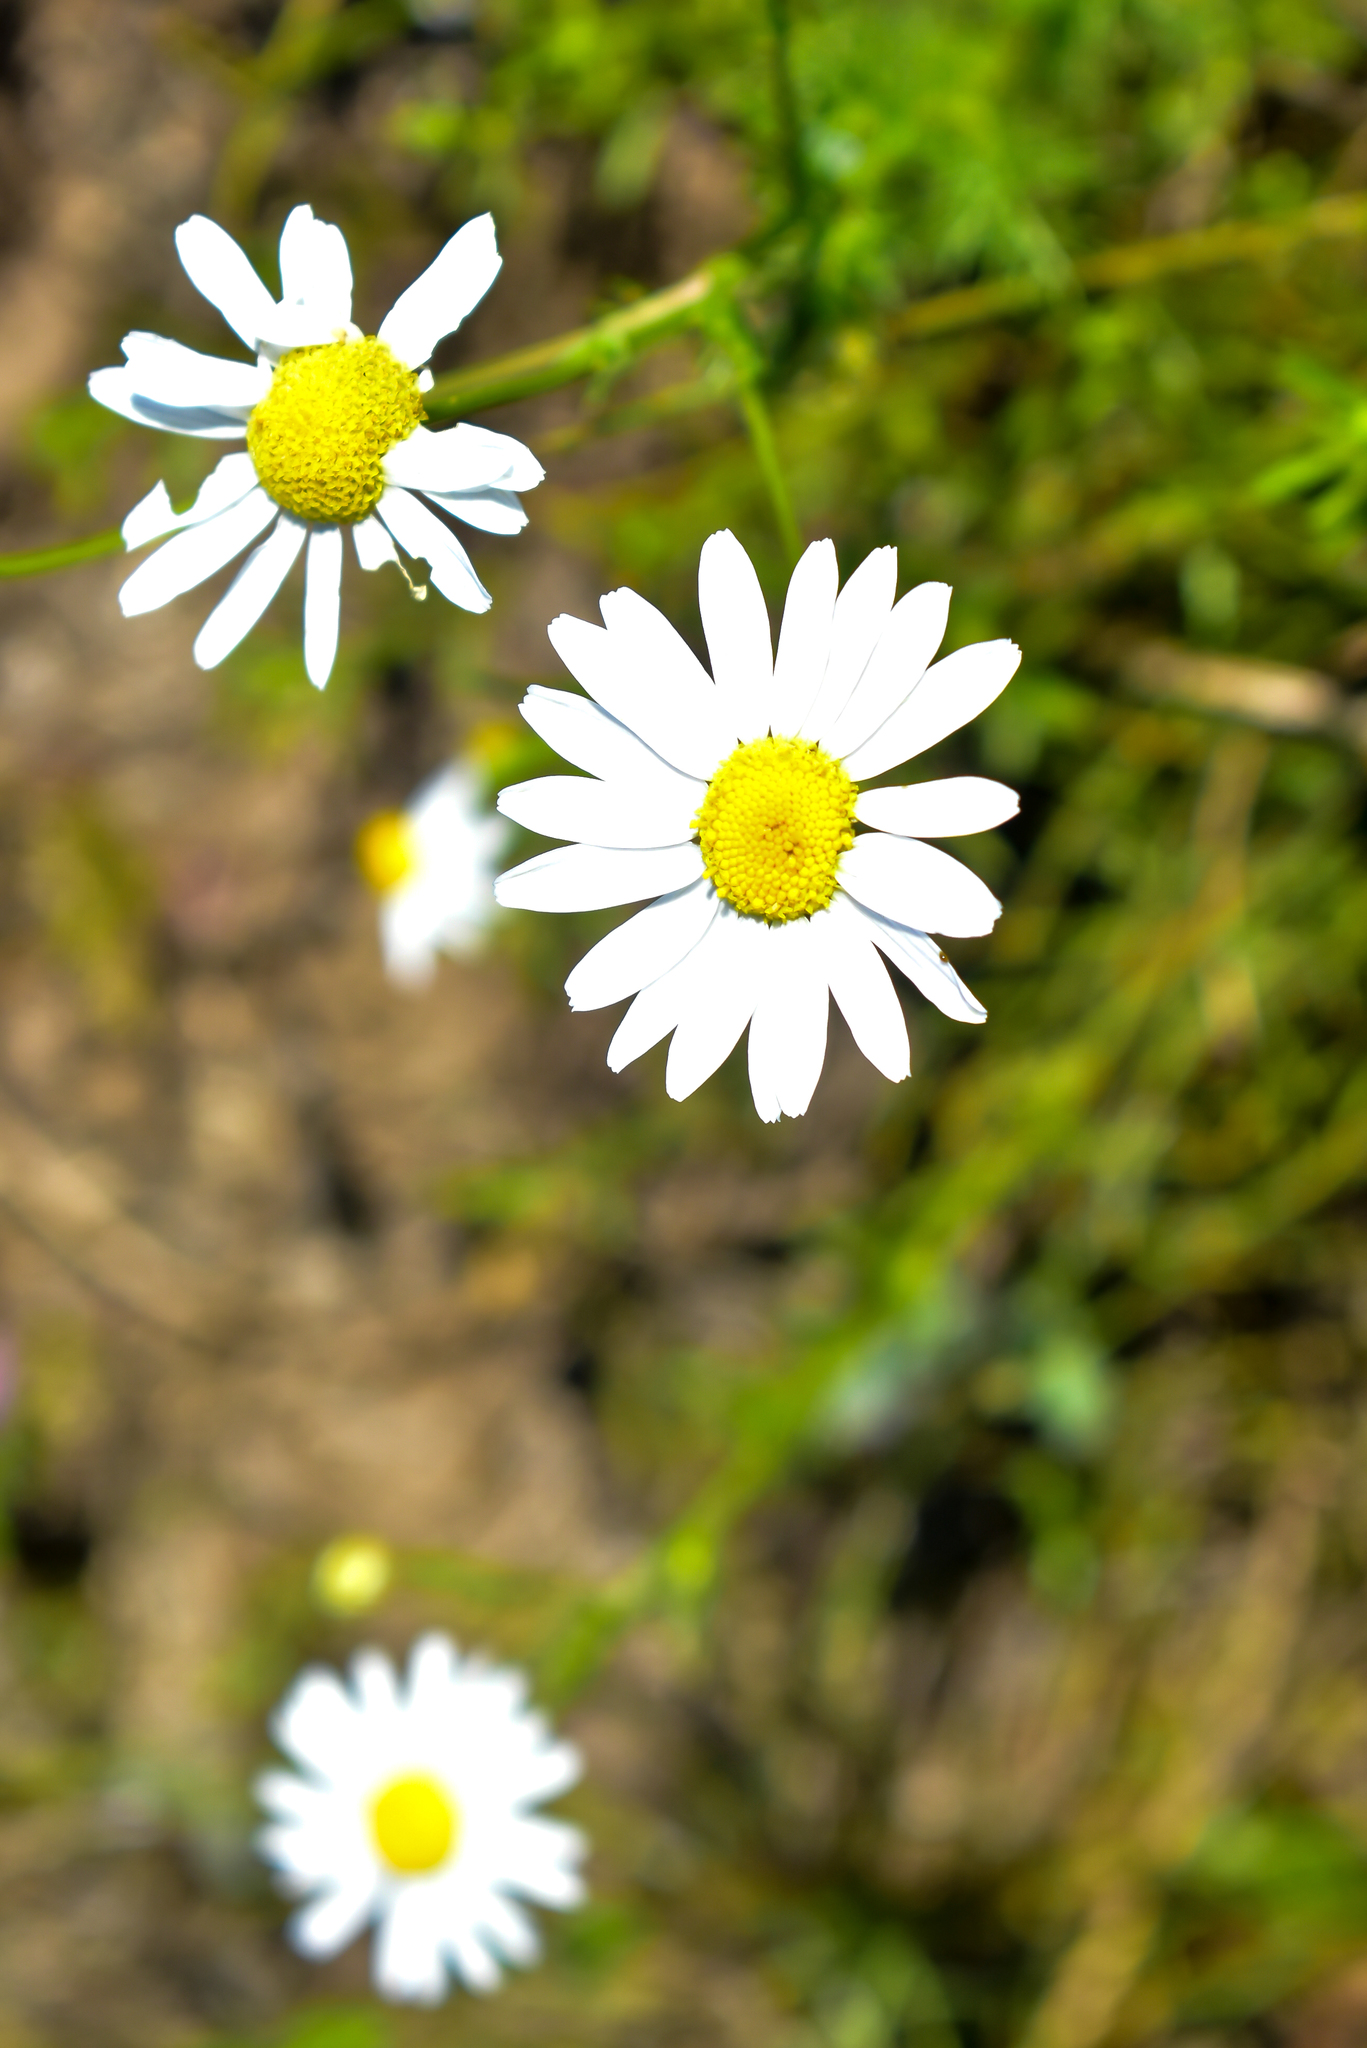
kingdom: Plantae
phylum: Tracheophyta
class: Magnoliopsida
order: Asterales
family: Asteraceae
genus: Tripleurospermum
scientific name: Tripleurospermum inodorum
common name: Scentless mayweed
